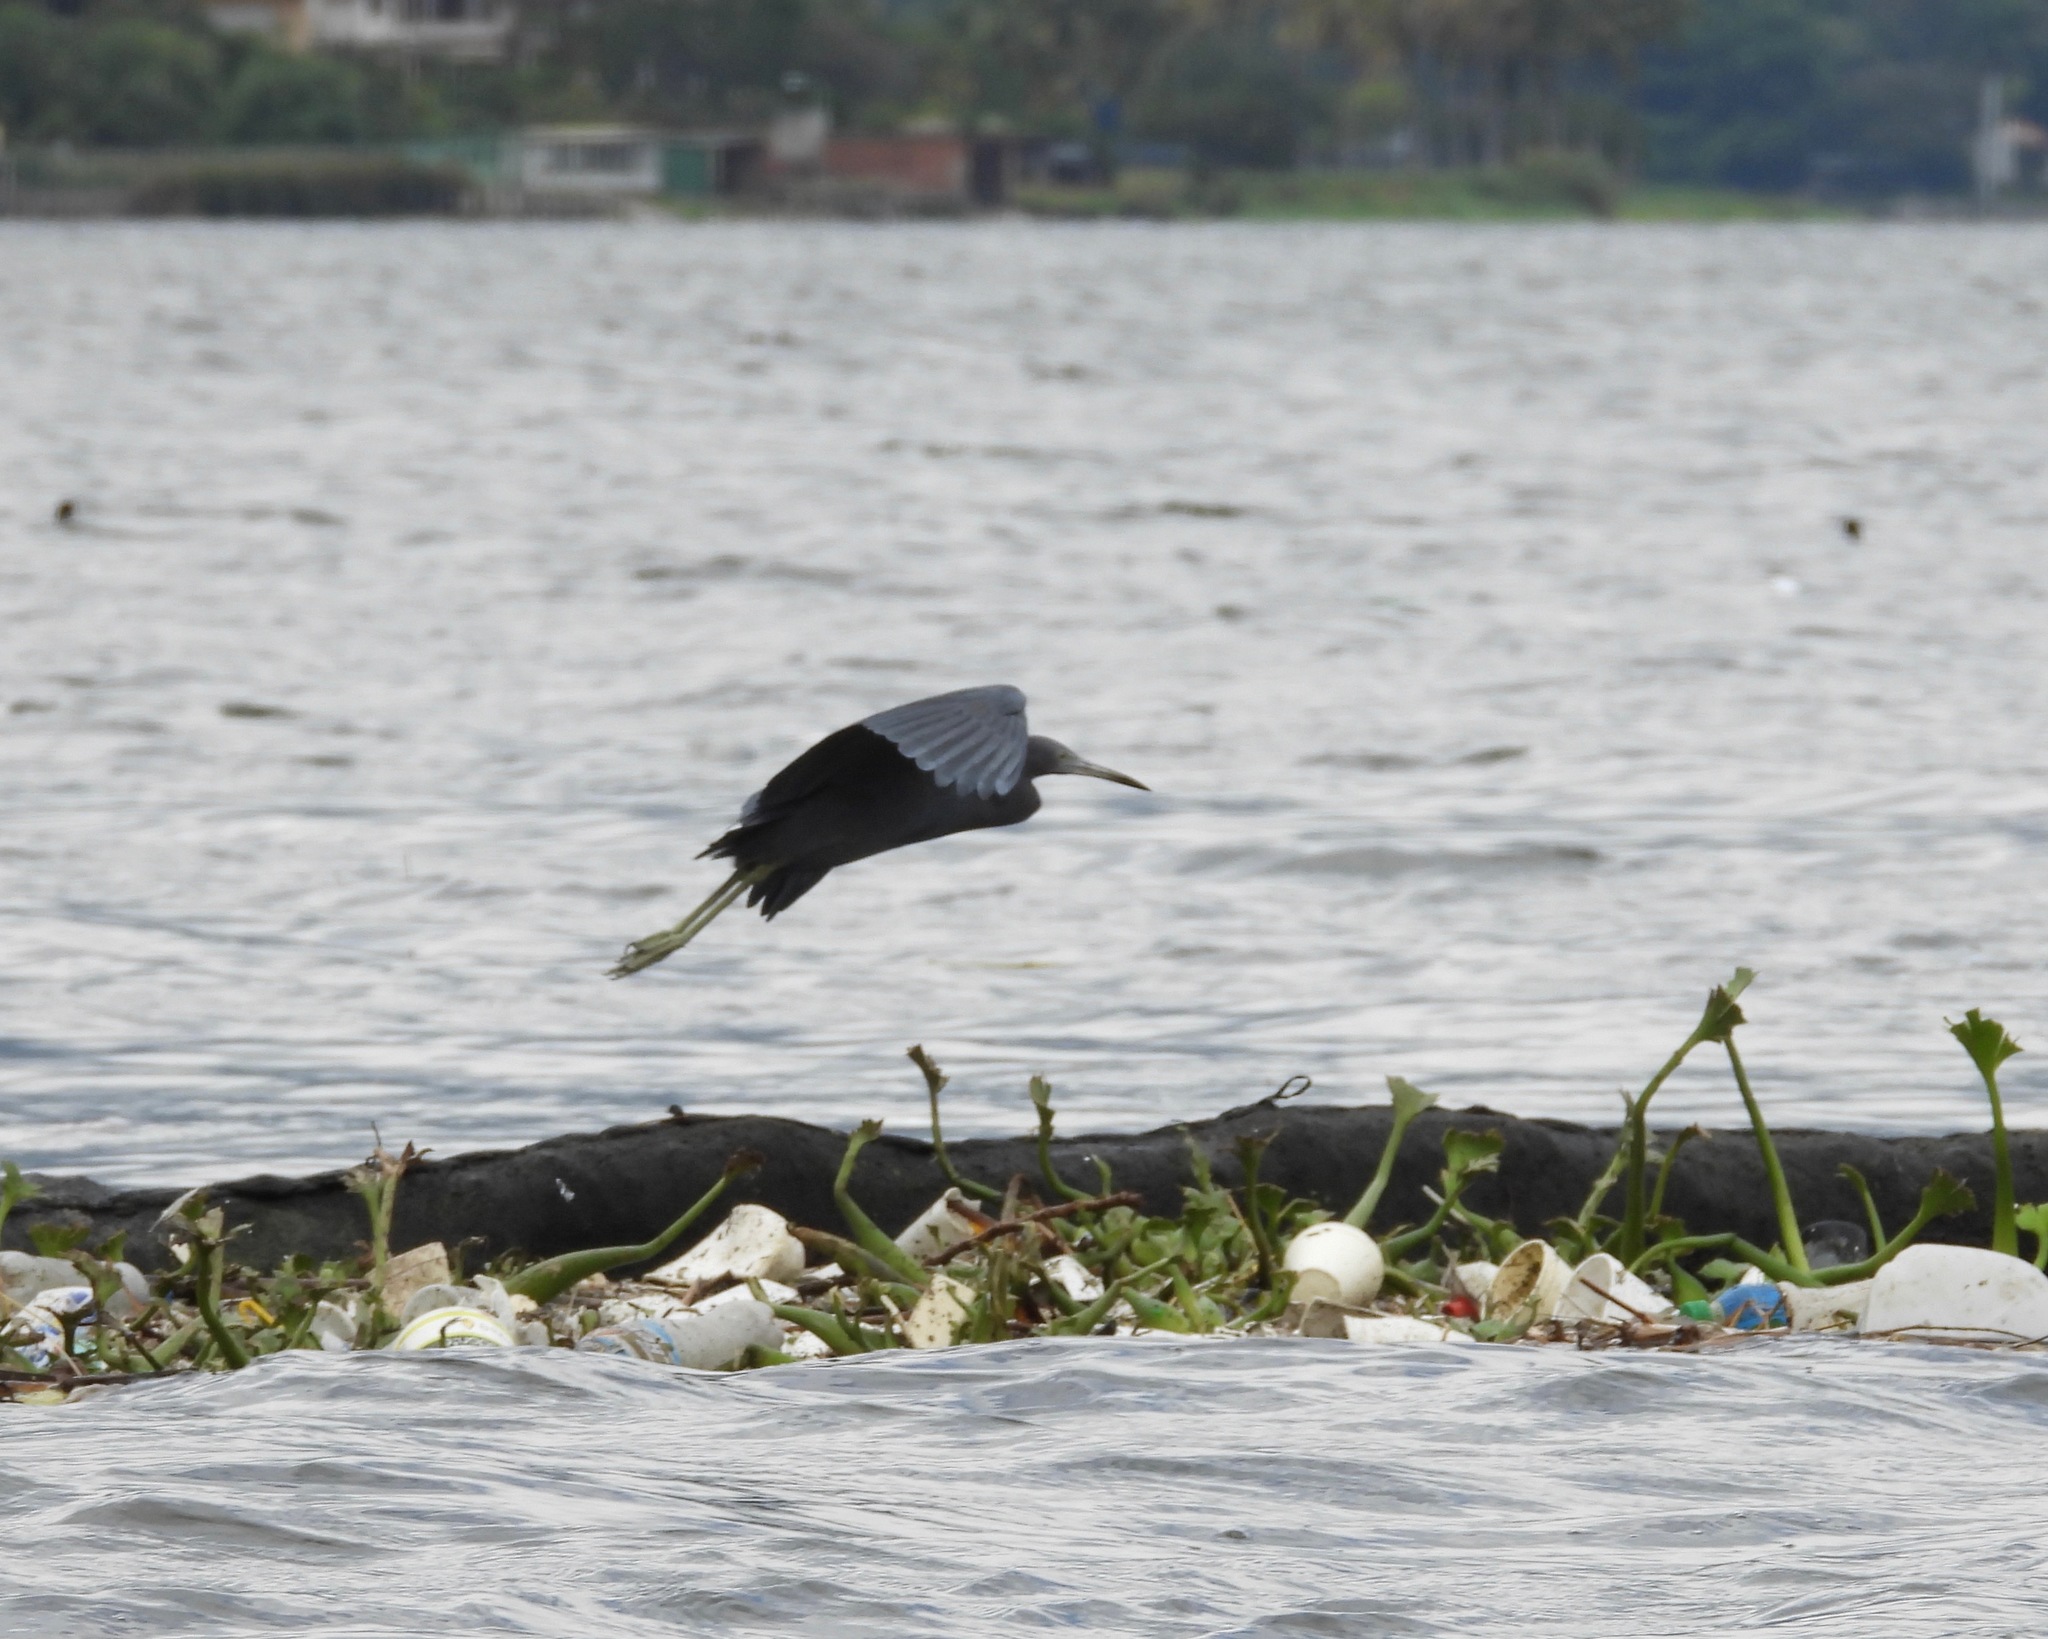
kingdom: Animalia
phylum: Chordata
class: Aves
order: Pelecaniformes
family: Ardeidae
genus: Egretta
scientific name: Egretta caerulea
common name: Little blue heron
